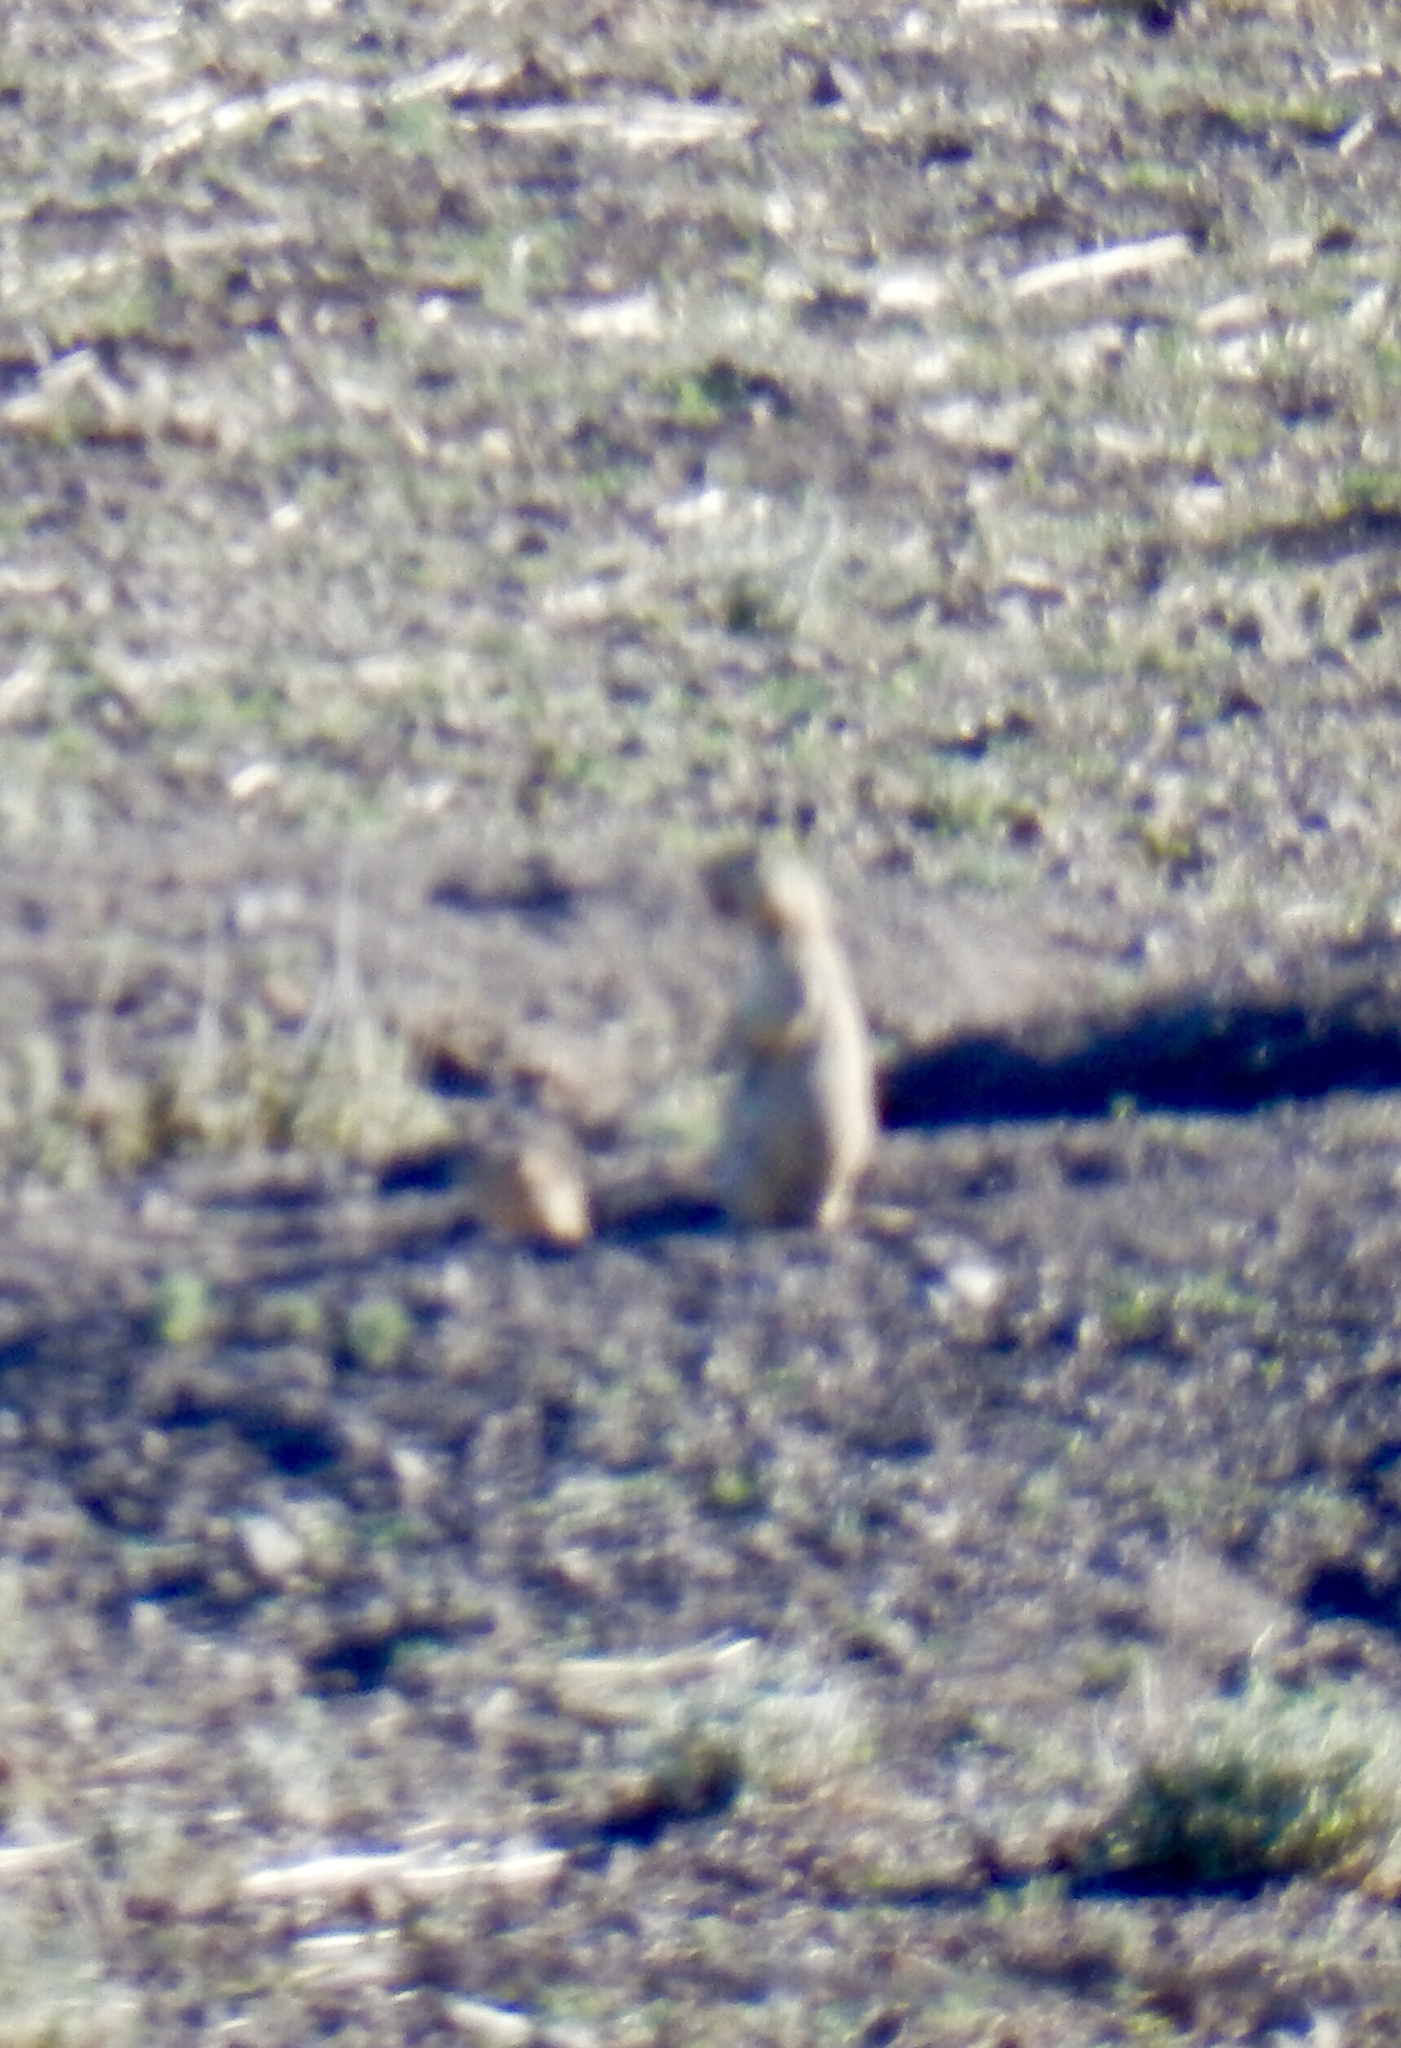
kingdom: Animalia
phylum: Chordata
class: Mammalia
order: Rodentia
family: Sciuridae
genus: Cynomys
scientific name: Cynomys gunnisoni
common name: Gunnison's prairie dog
